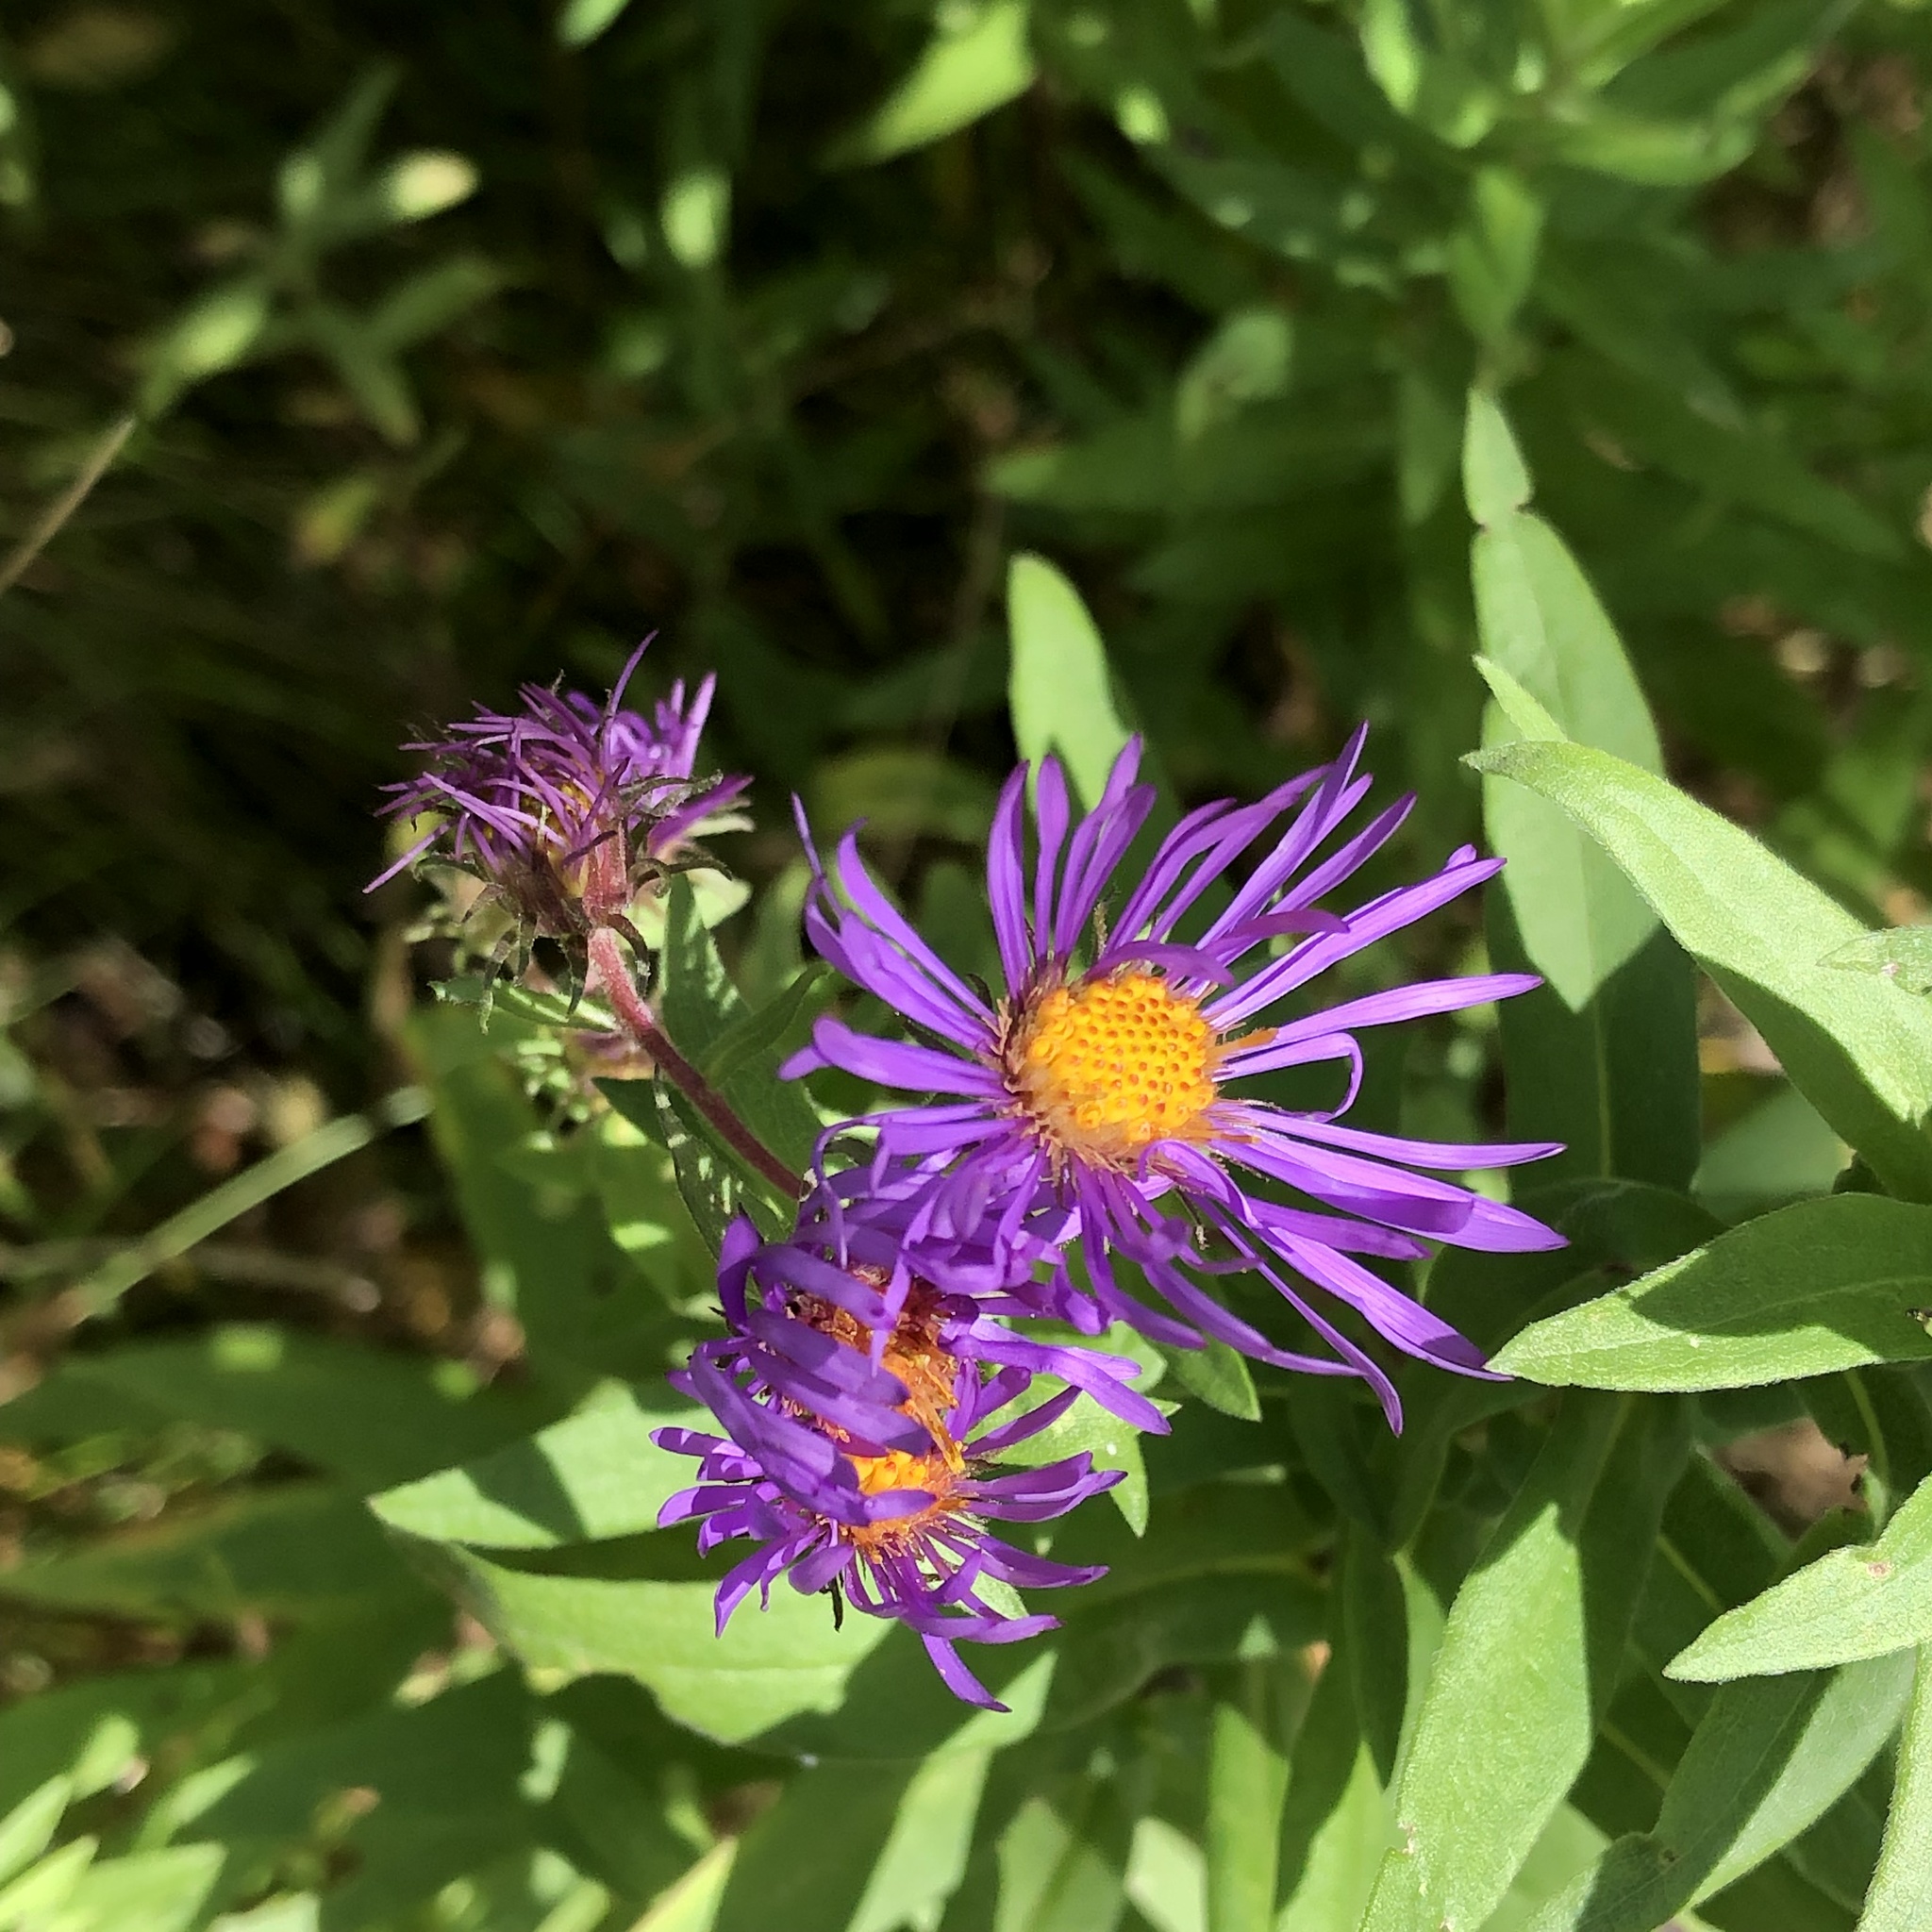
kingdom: Plantae
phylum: Tracheophyta
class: Magnoliopsida
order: Asterales
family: Asteraceae
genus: Symphyotrichum
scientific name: Symphyotrichum novae-angliae
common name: Michaelmas daisy
